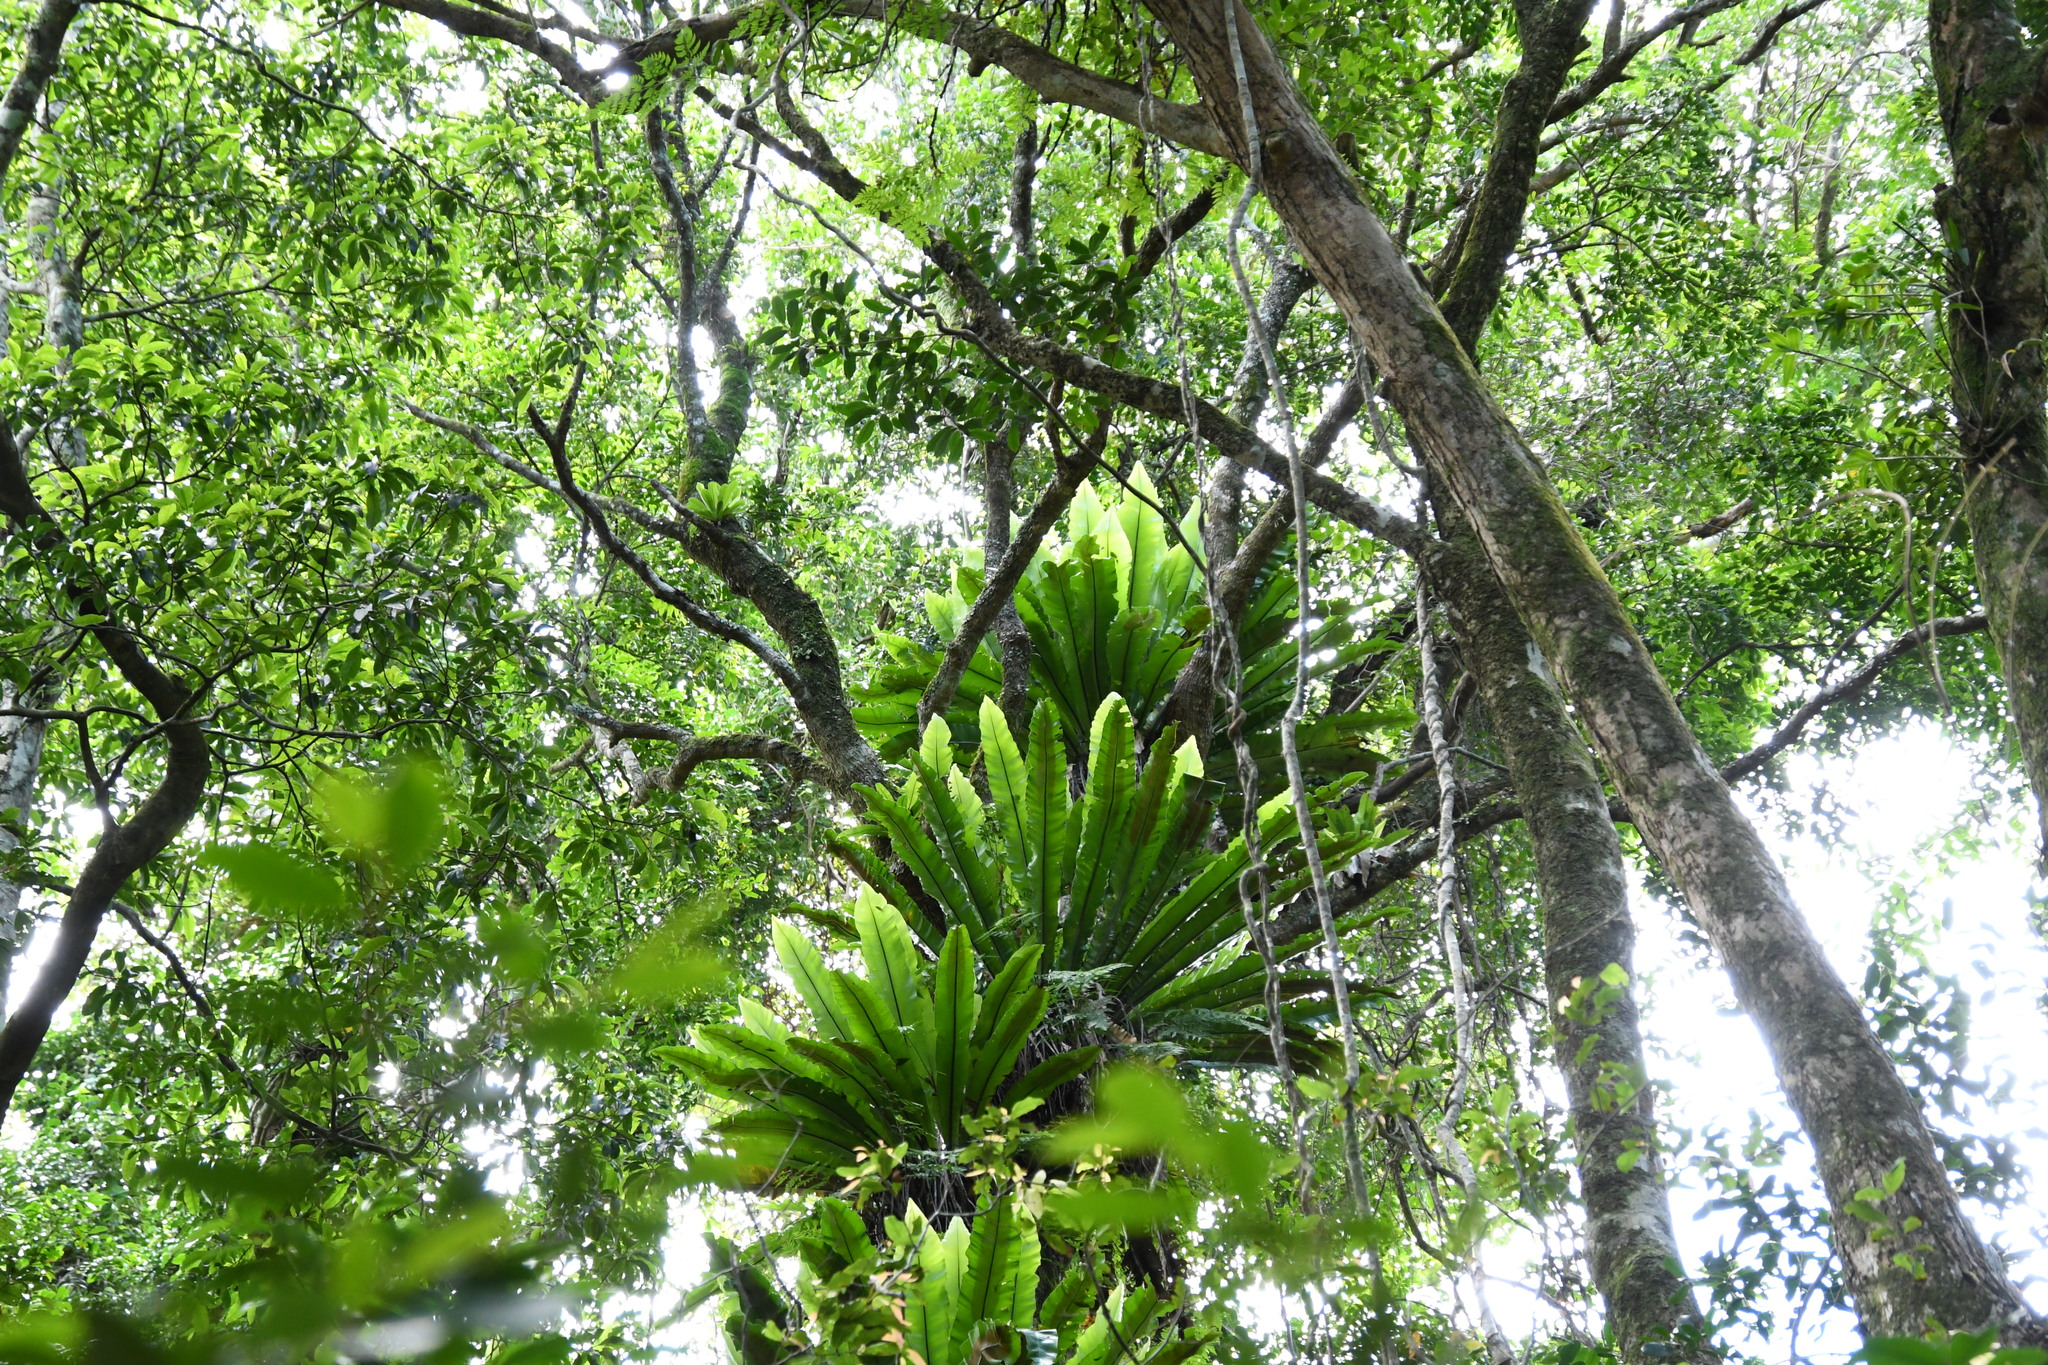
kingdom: Plantae
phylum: Tracheophyta
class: Polypodiopsida
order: Polypodiales
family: Aspleniaceae
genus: Asplenium
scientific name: Asplenium australasicum
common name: Bird's-nest fern
